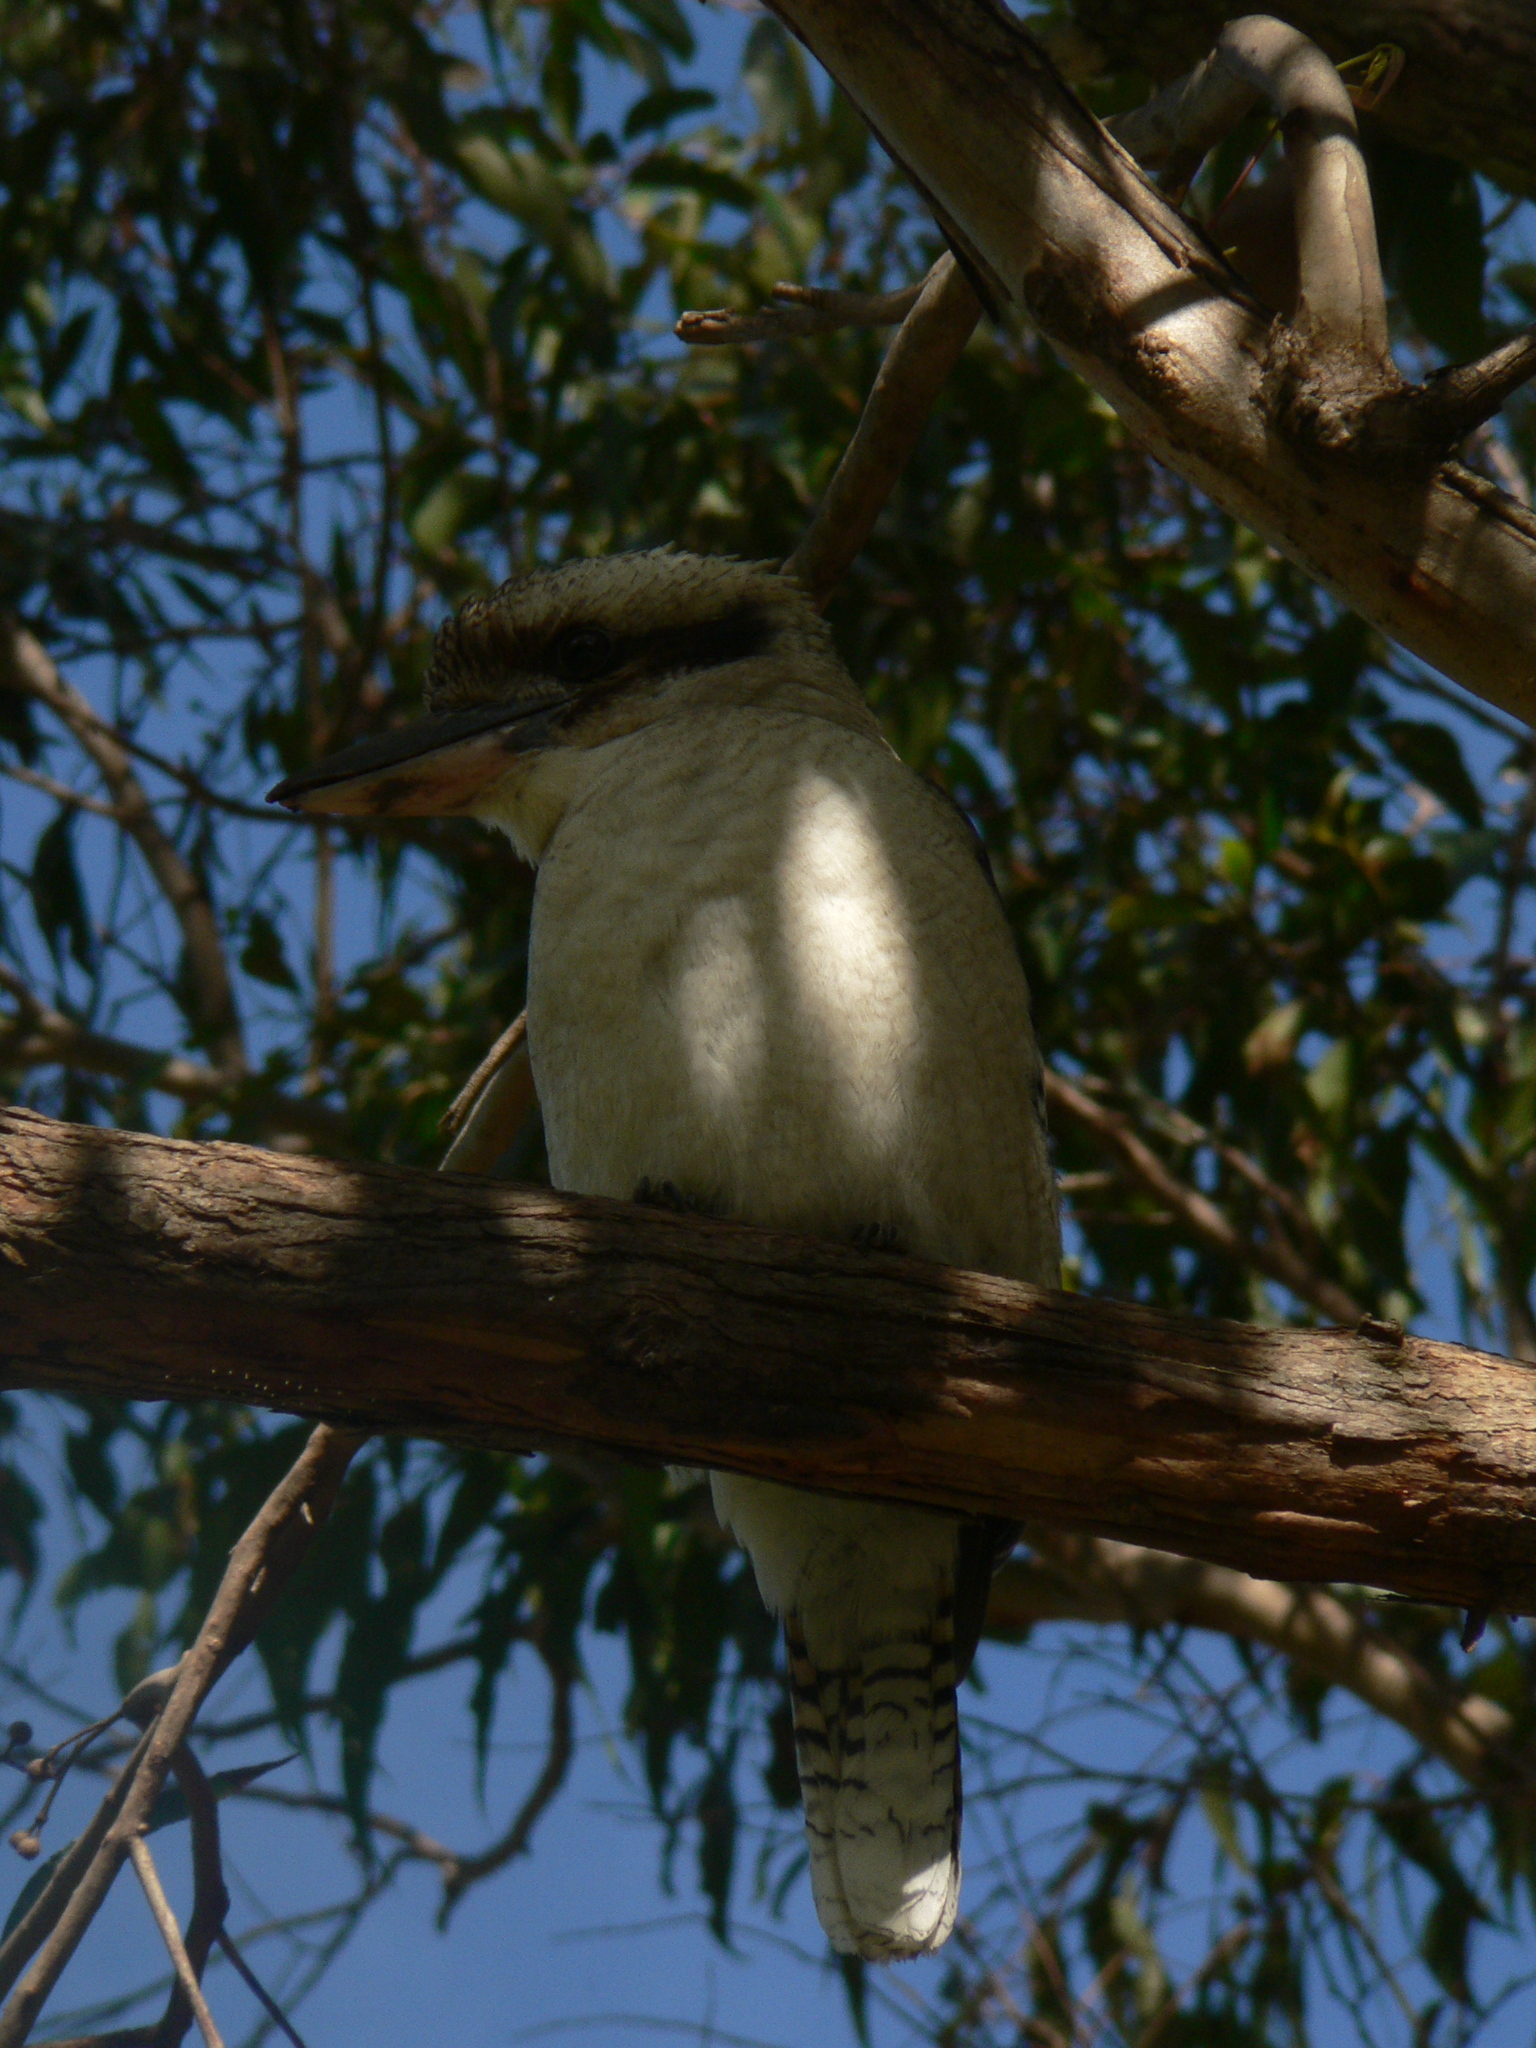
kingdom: Animalia
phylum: Chordata
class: Aves
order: Coraciiformes
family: Alcedinidae
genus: Dacelo
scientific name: Dacelo novaeguineae
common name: Laughing kookaburra
